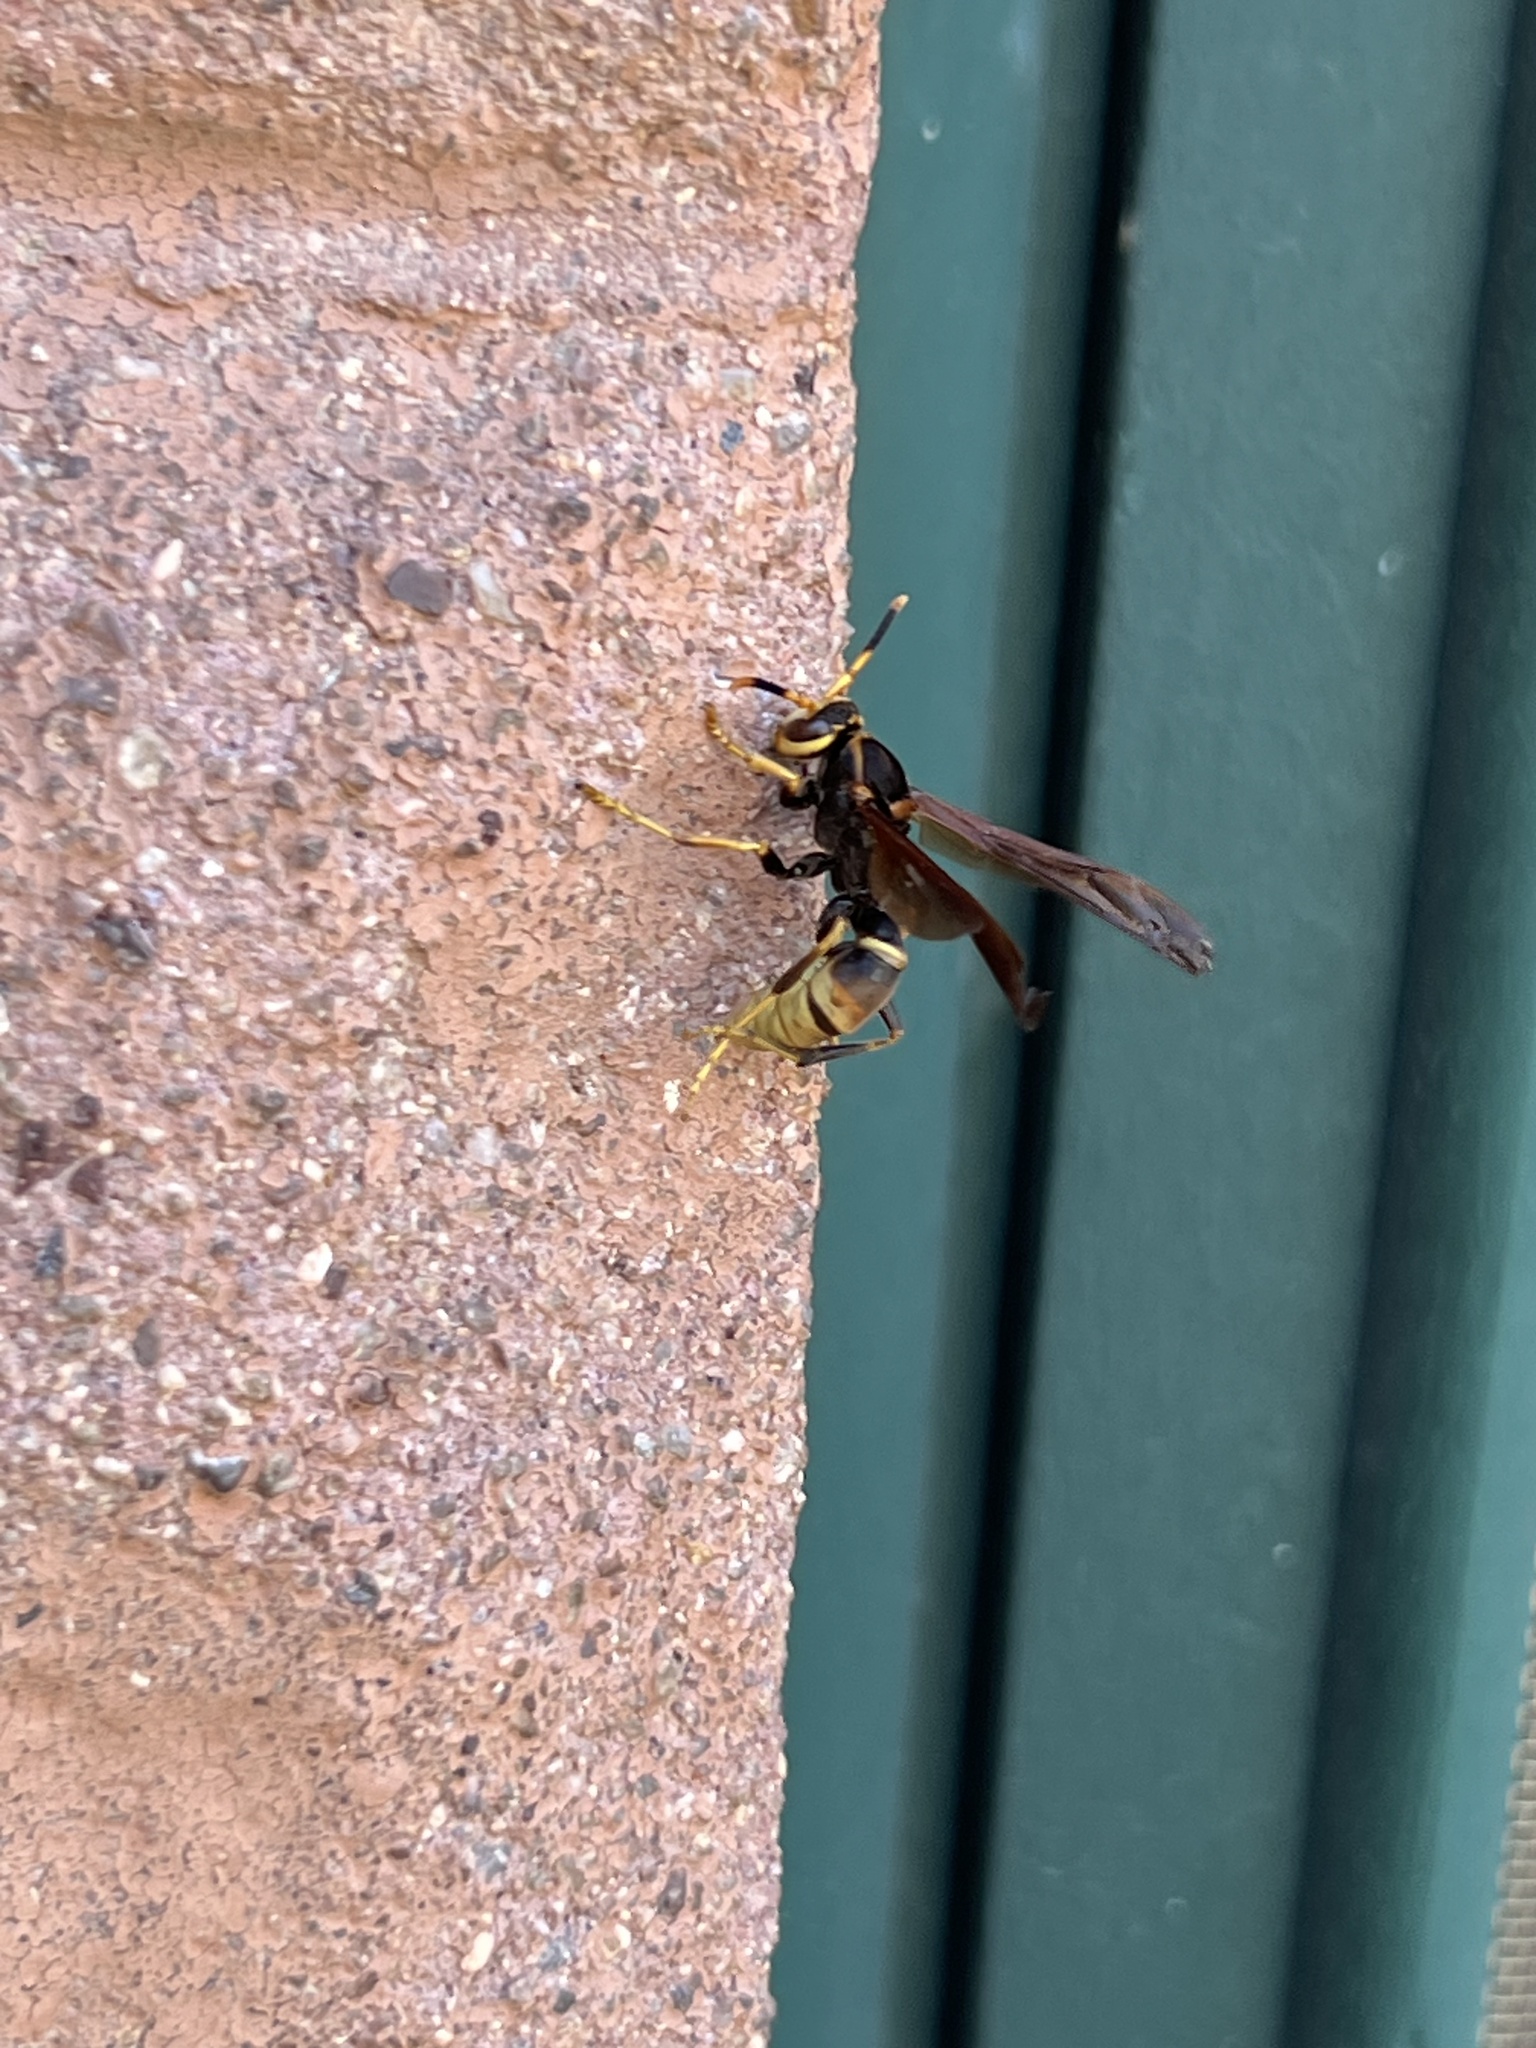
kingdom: Animalia
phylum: Arthropoda
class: Insecta
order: Hymenoptera
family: Eumenidae
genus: Polistes
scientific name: Polistes comanchus
